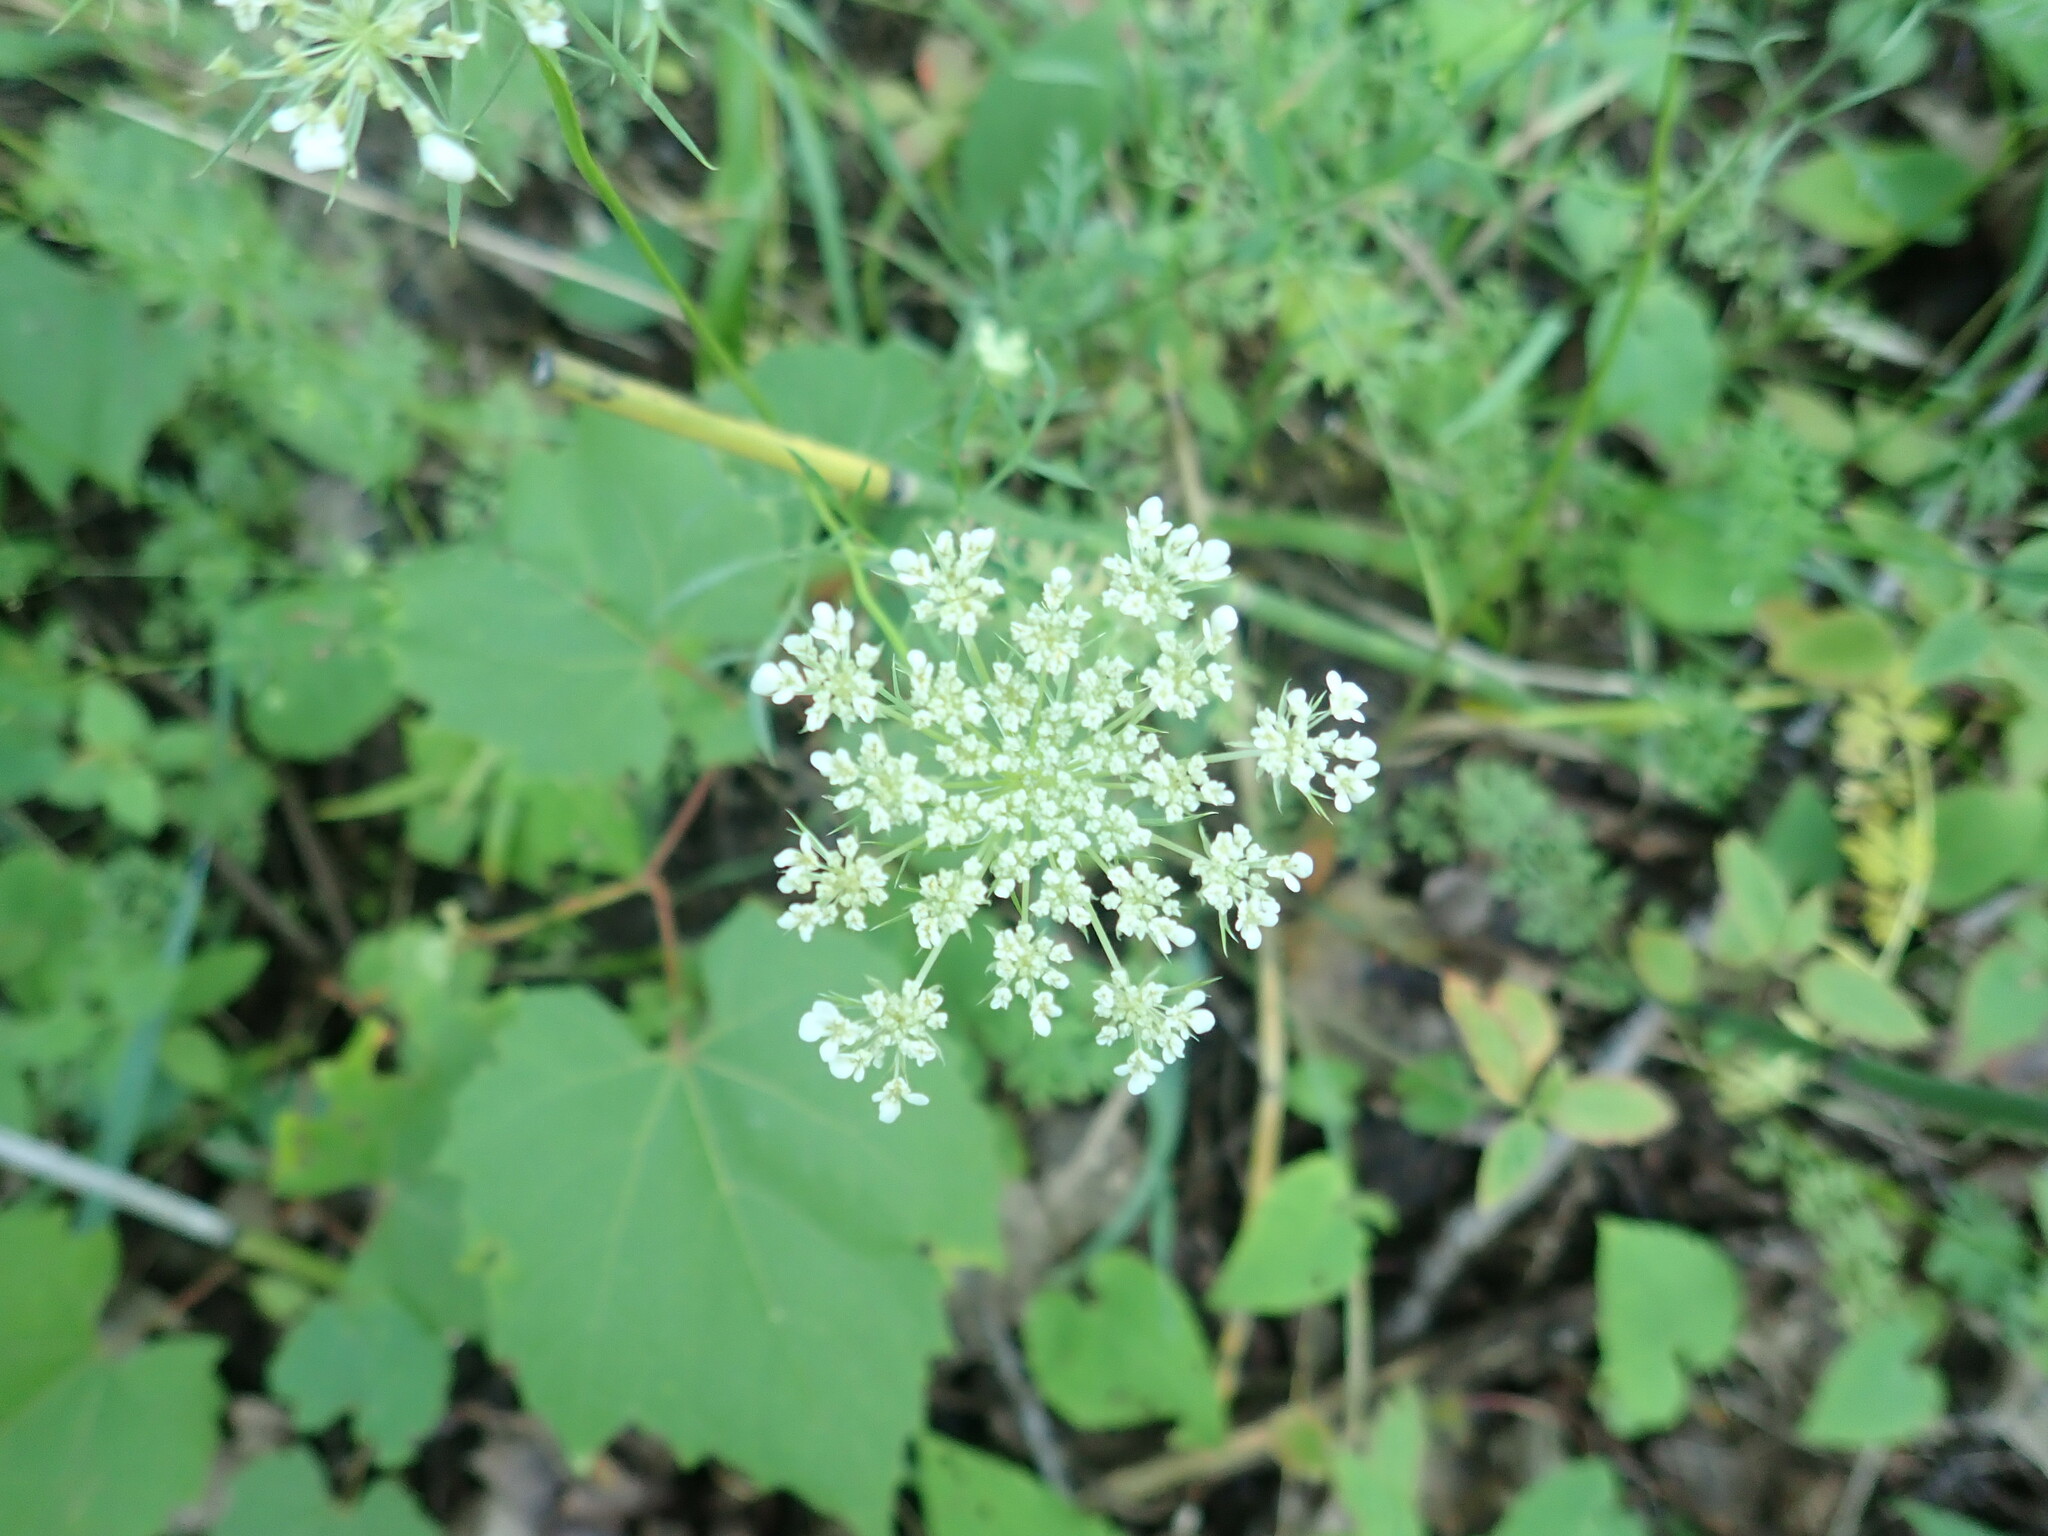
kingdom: Plantae
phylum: Tracheophyta
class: Magnoliopsida
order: Apiales
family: Apiaceae
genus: Daucus
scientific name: Daucus carota
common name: Wild carrot
